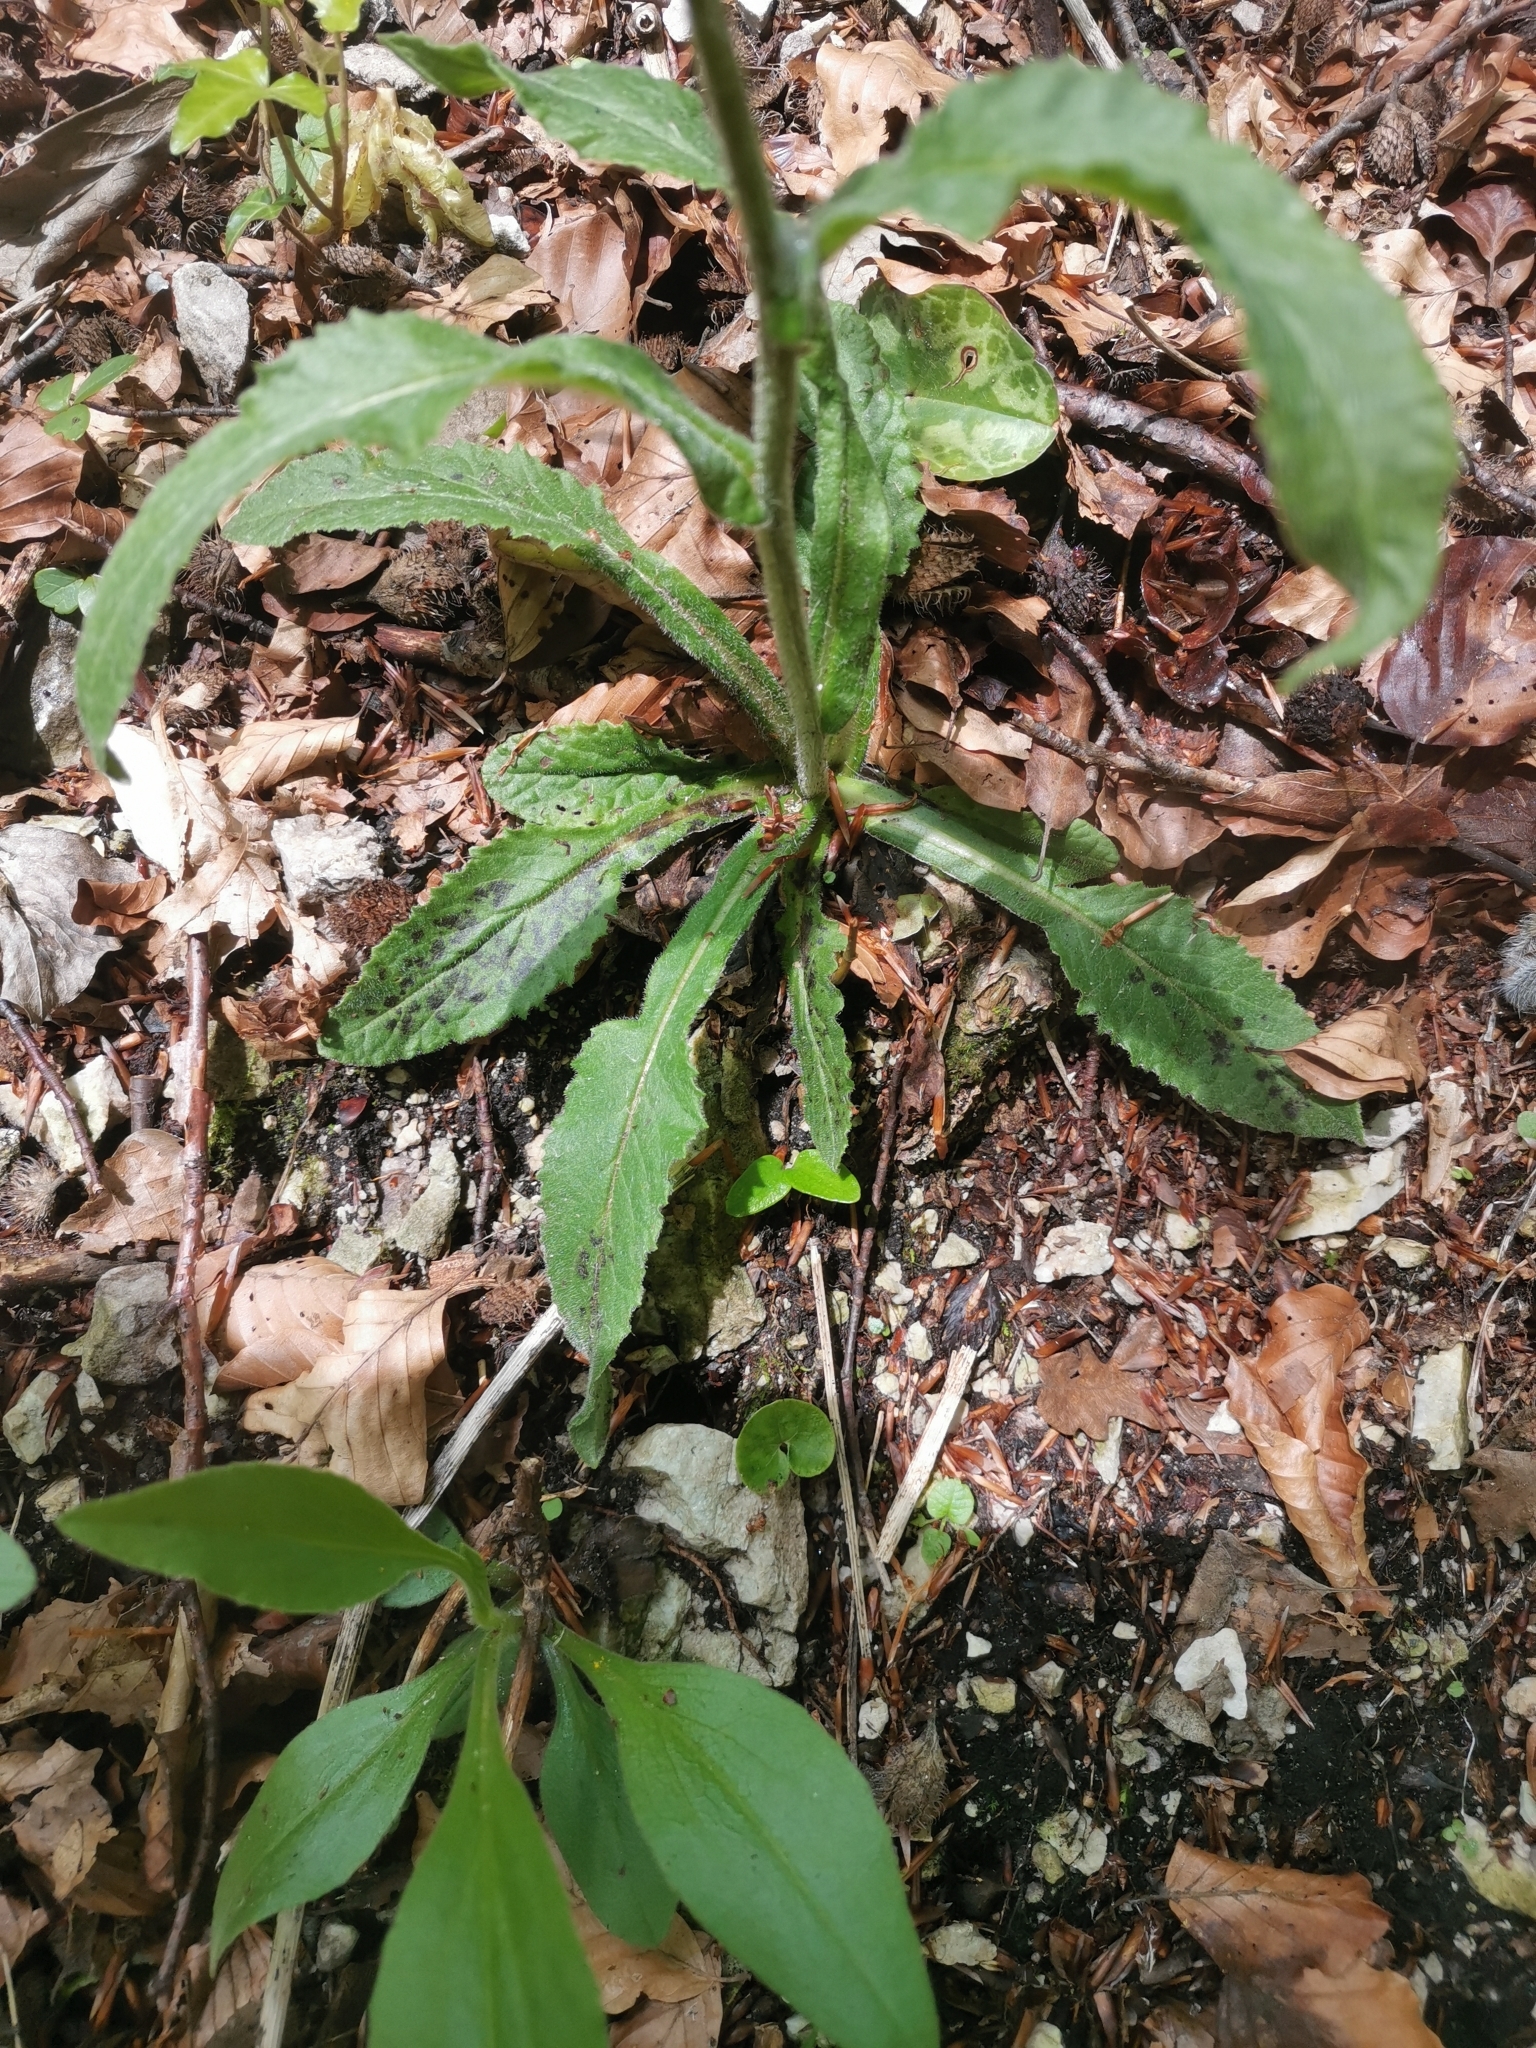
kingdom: Plantae
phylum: Tracheophyta
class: Magnoliopsida
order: Asterales
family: Asteraceae
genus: Tephroseris
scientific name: Tephroseris longifolia
